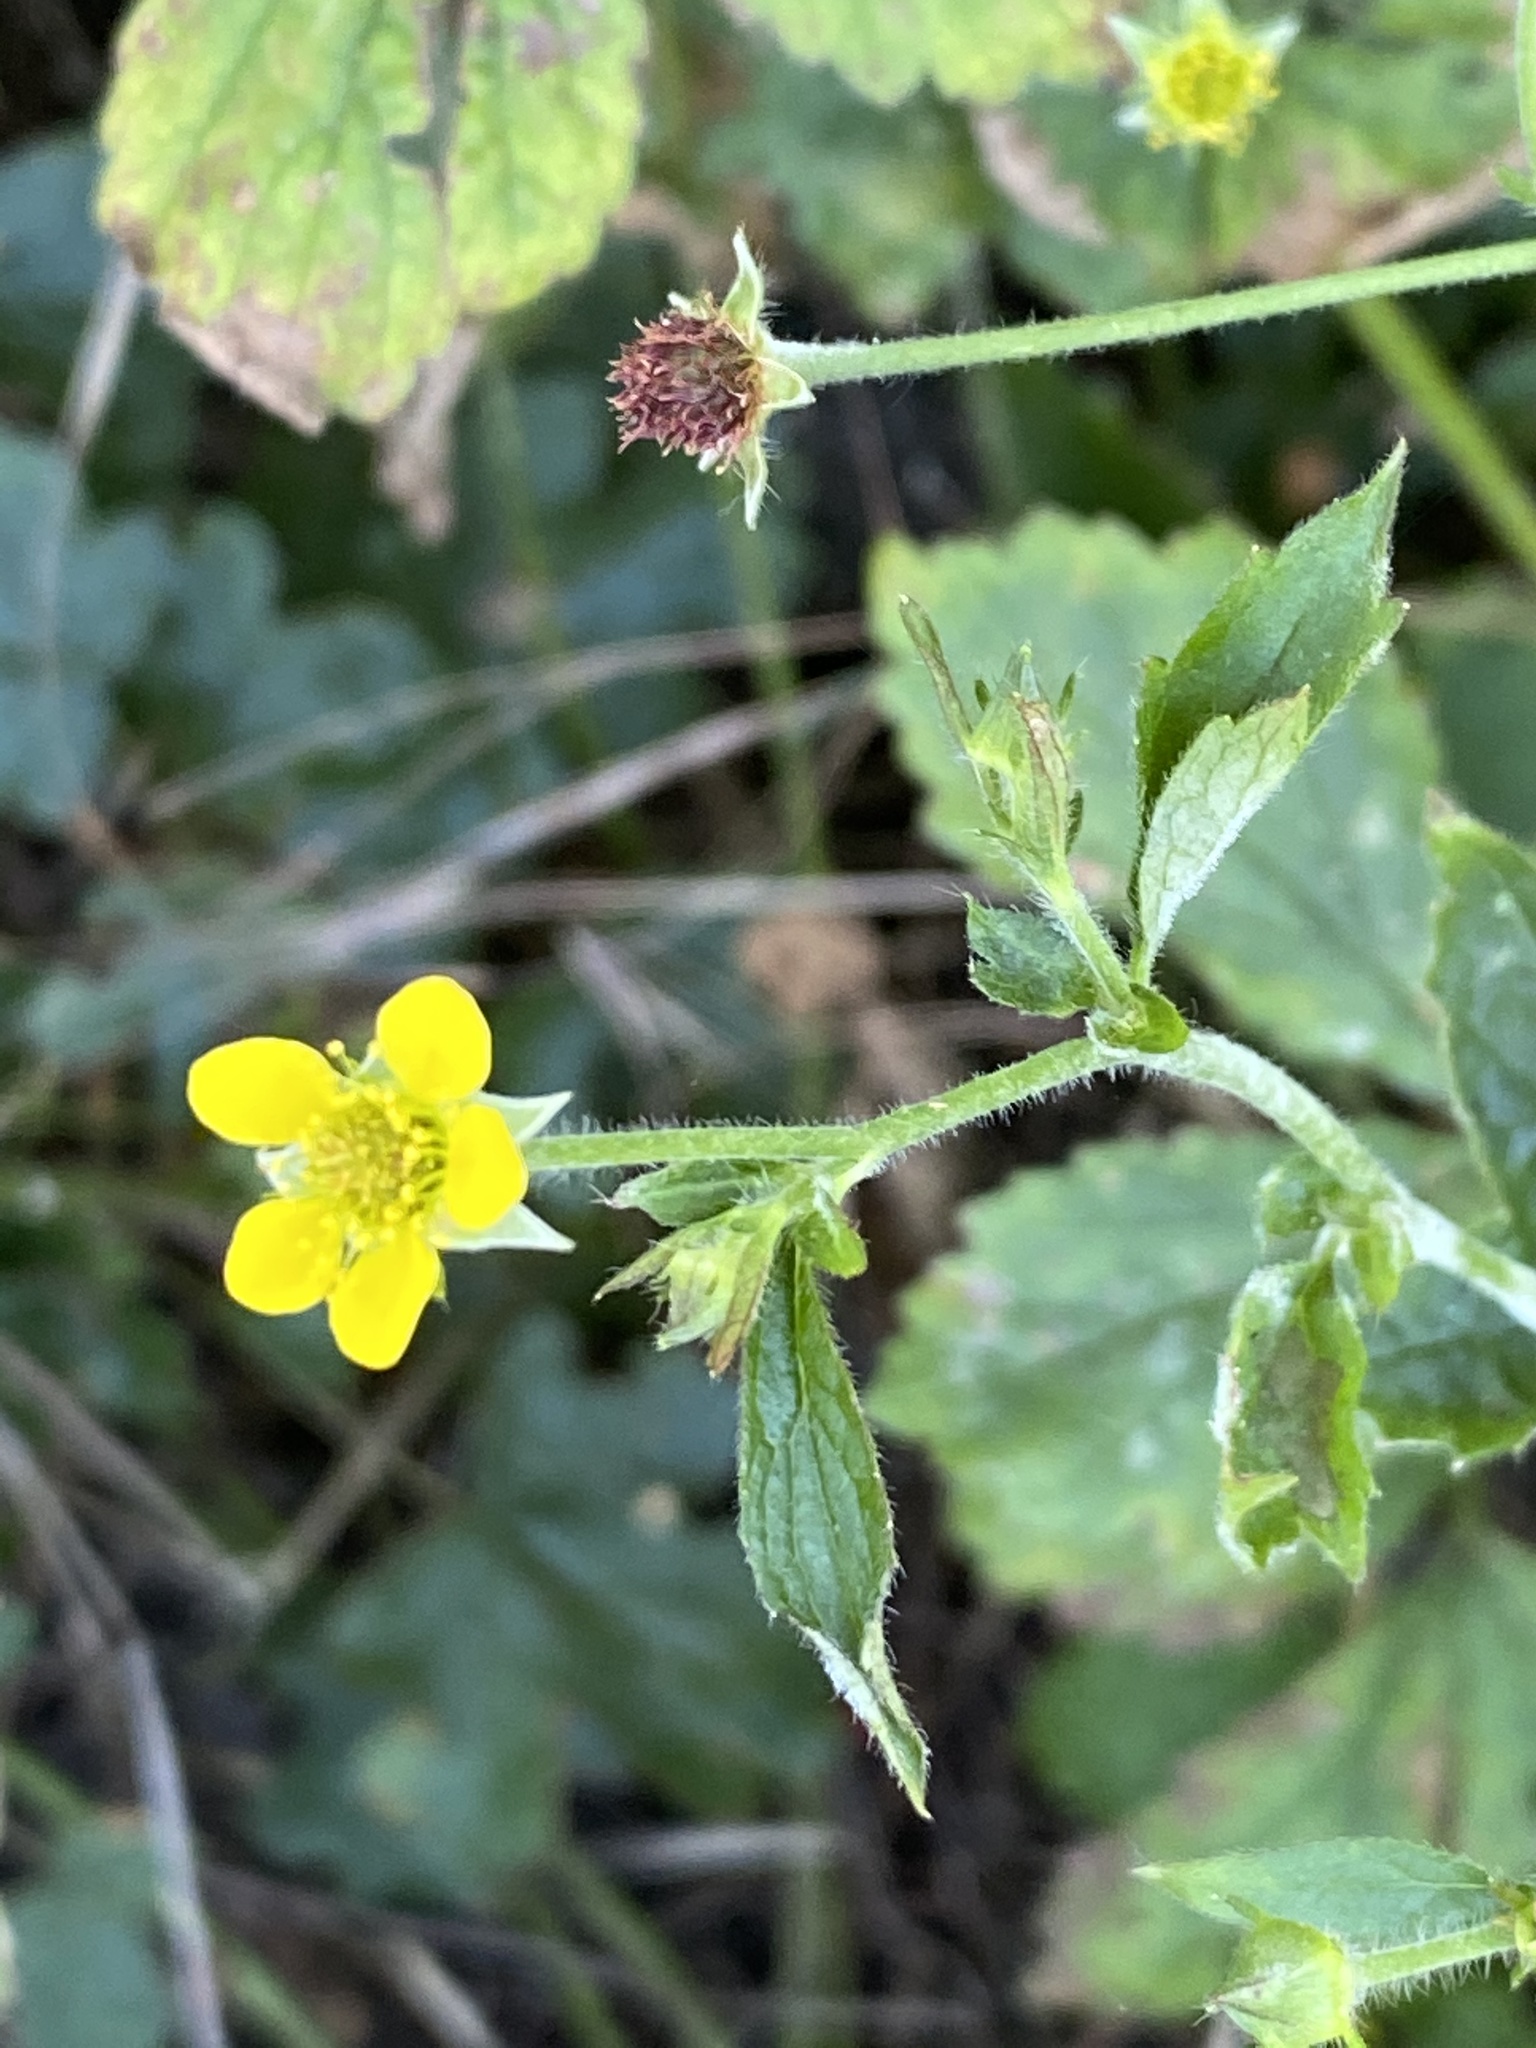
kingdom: Plantae
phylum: Tracheophyta
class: Magnoliopsida
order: Rosales
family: Rosaceae
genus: Geum
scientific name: Geum urbanum
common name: Wood avens
